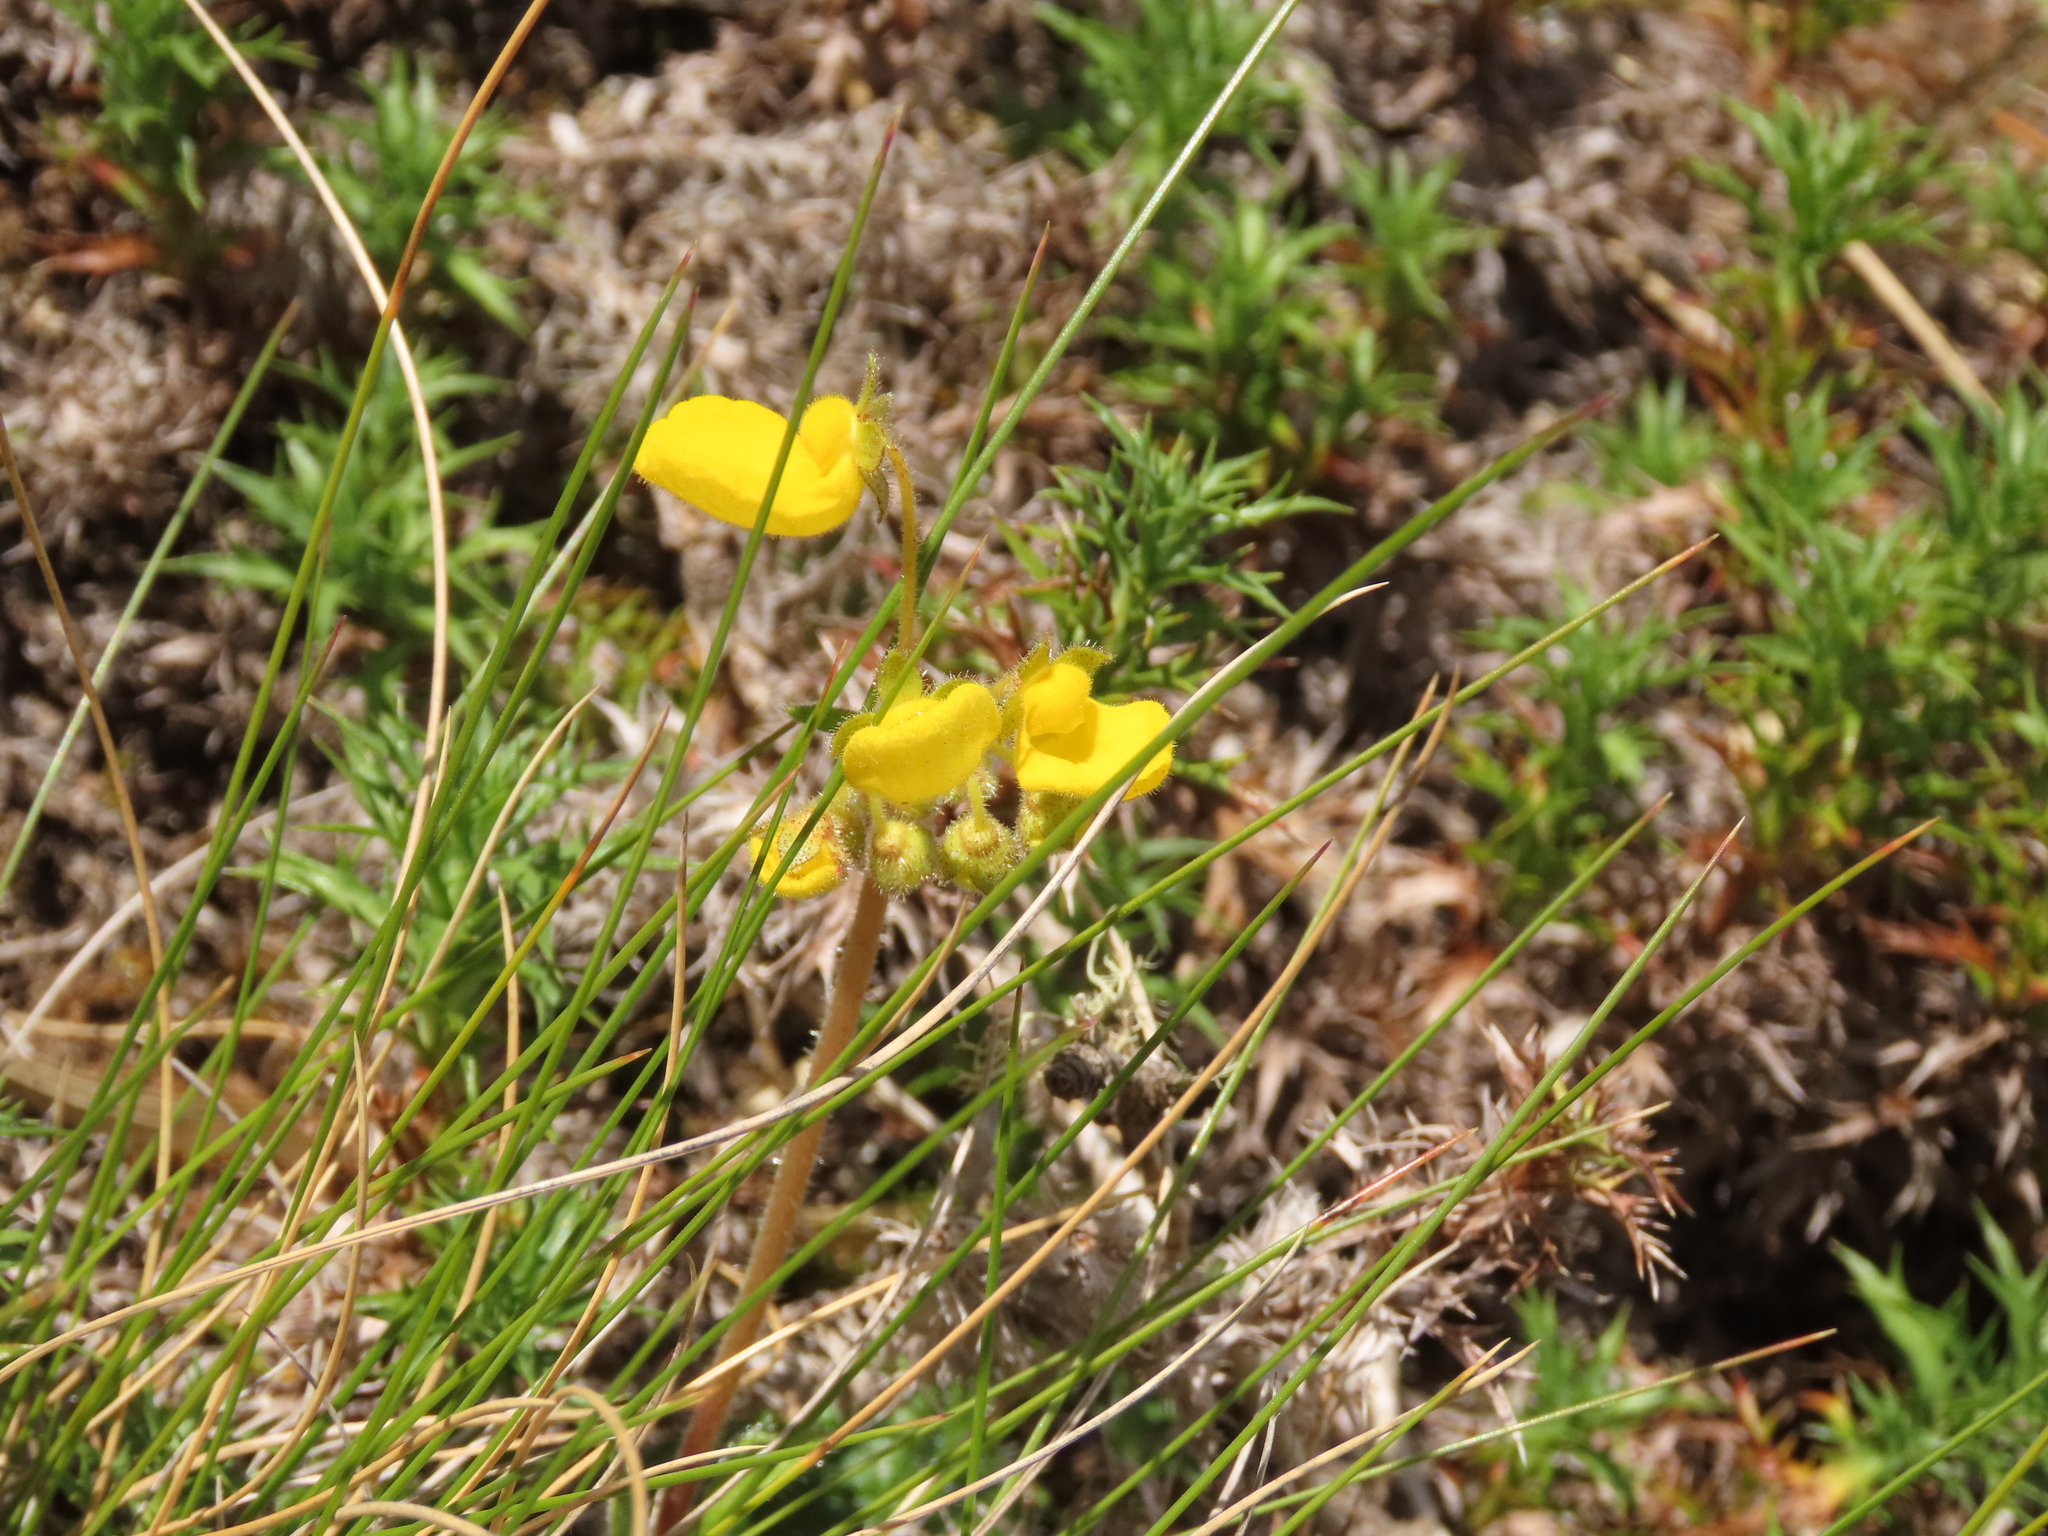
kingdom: Plantae
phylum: Tracheophyta
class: Magnoliopsida
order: Lamiales
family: Calceolariaceae
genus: Calceolaria
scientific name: Calceolaria valdiviana
